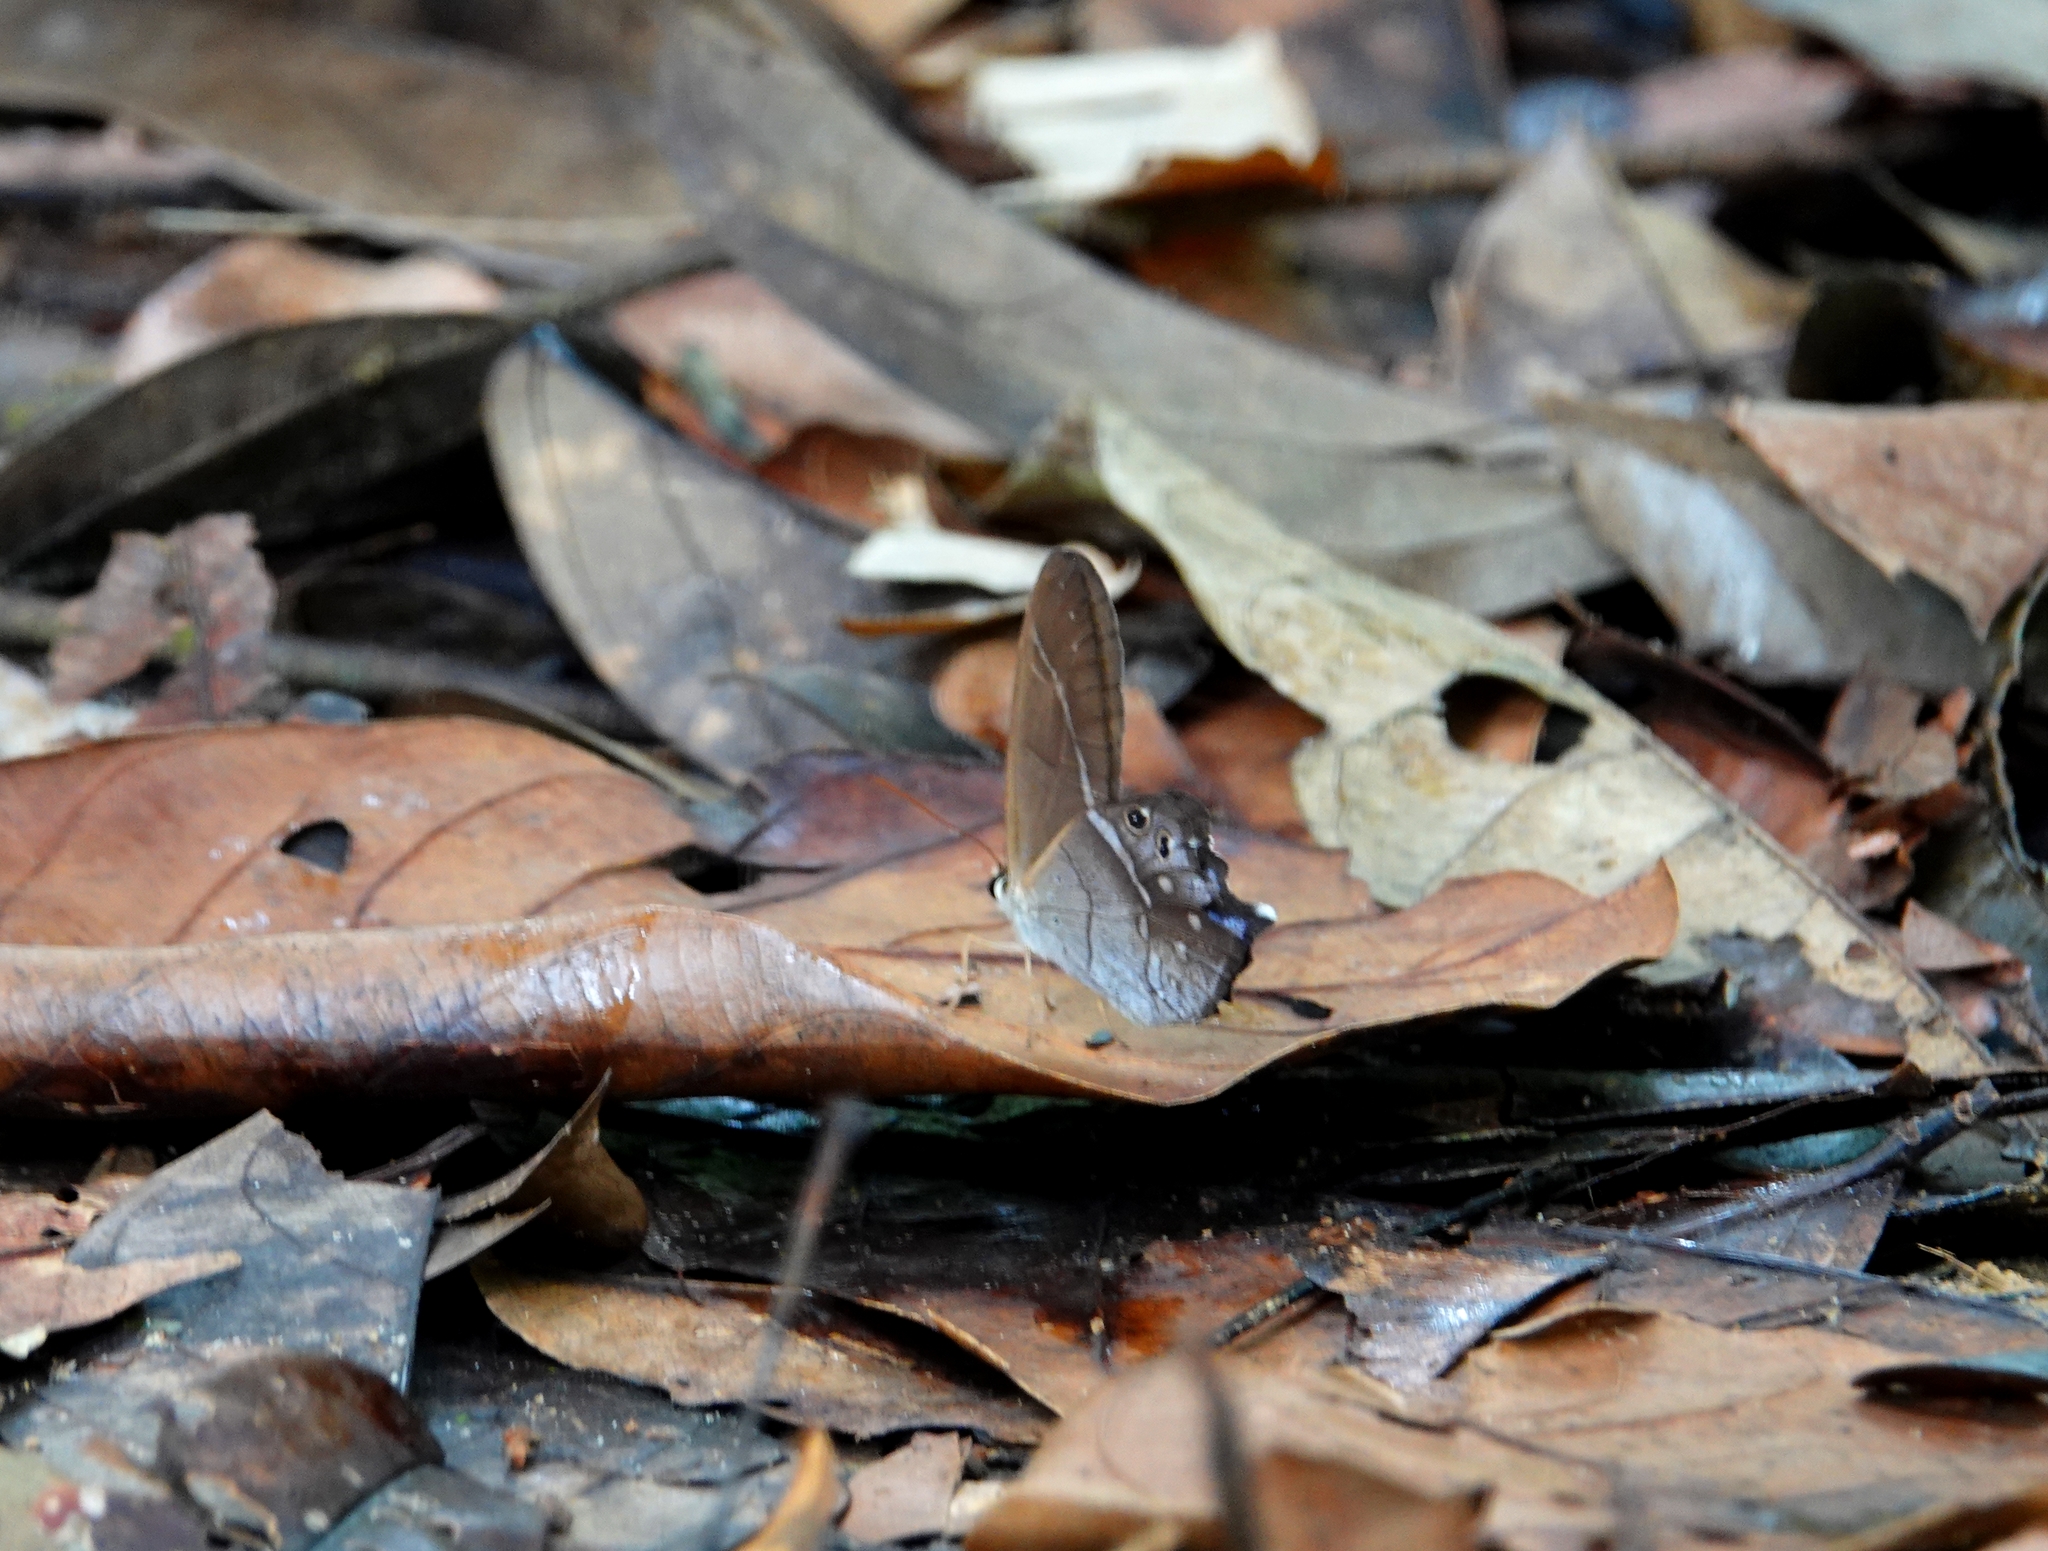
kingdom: Animalia
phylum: Arthropoda
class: Insecta
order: Lepidoptera
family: Nymphalidae
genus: Pierella
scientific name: Pierella dracontis
